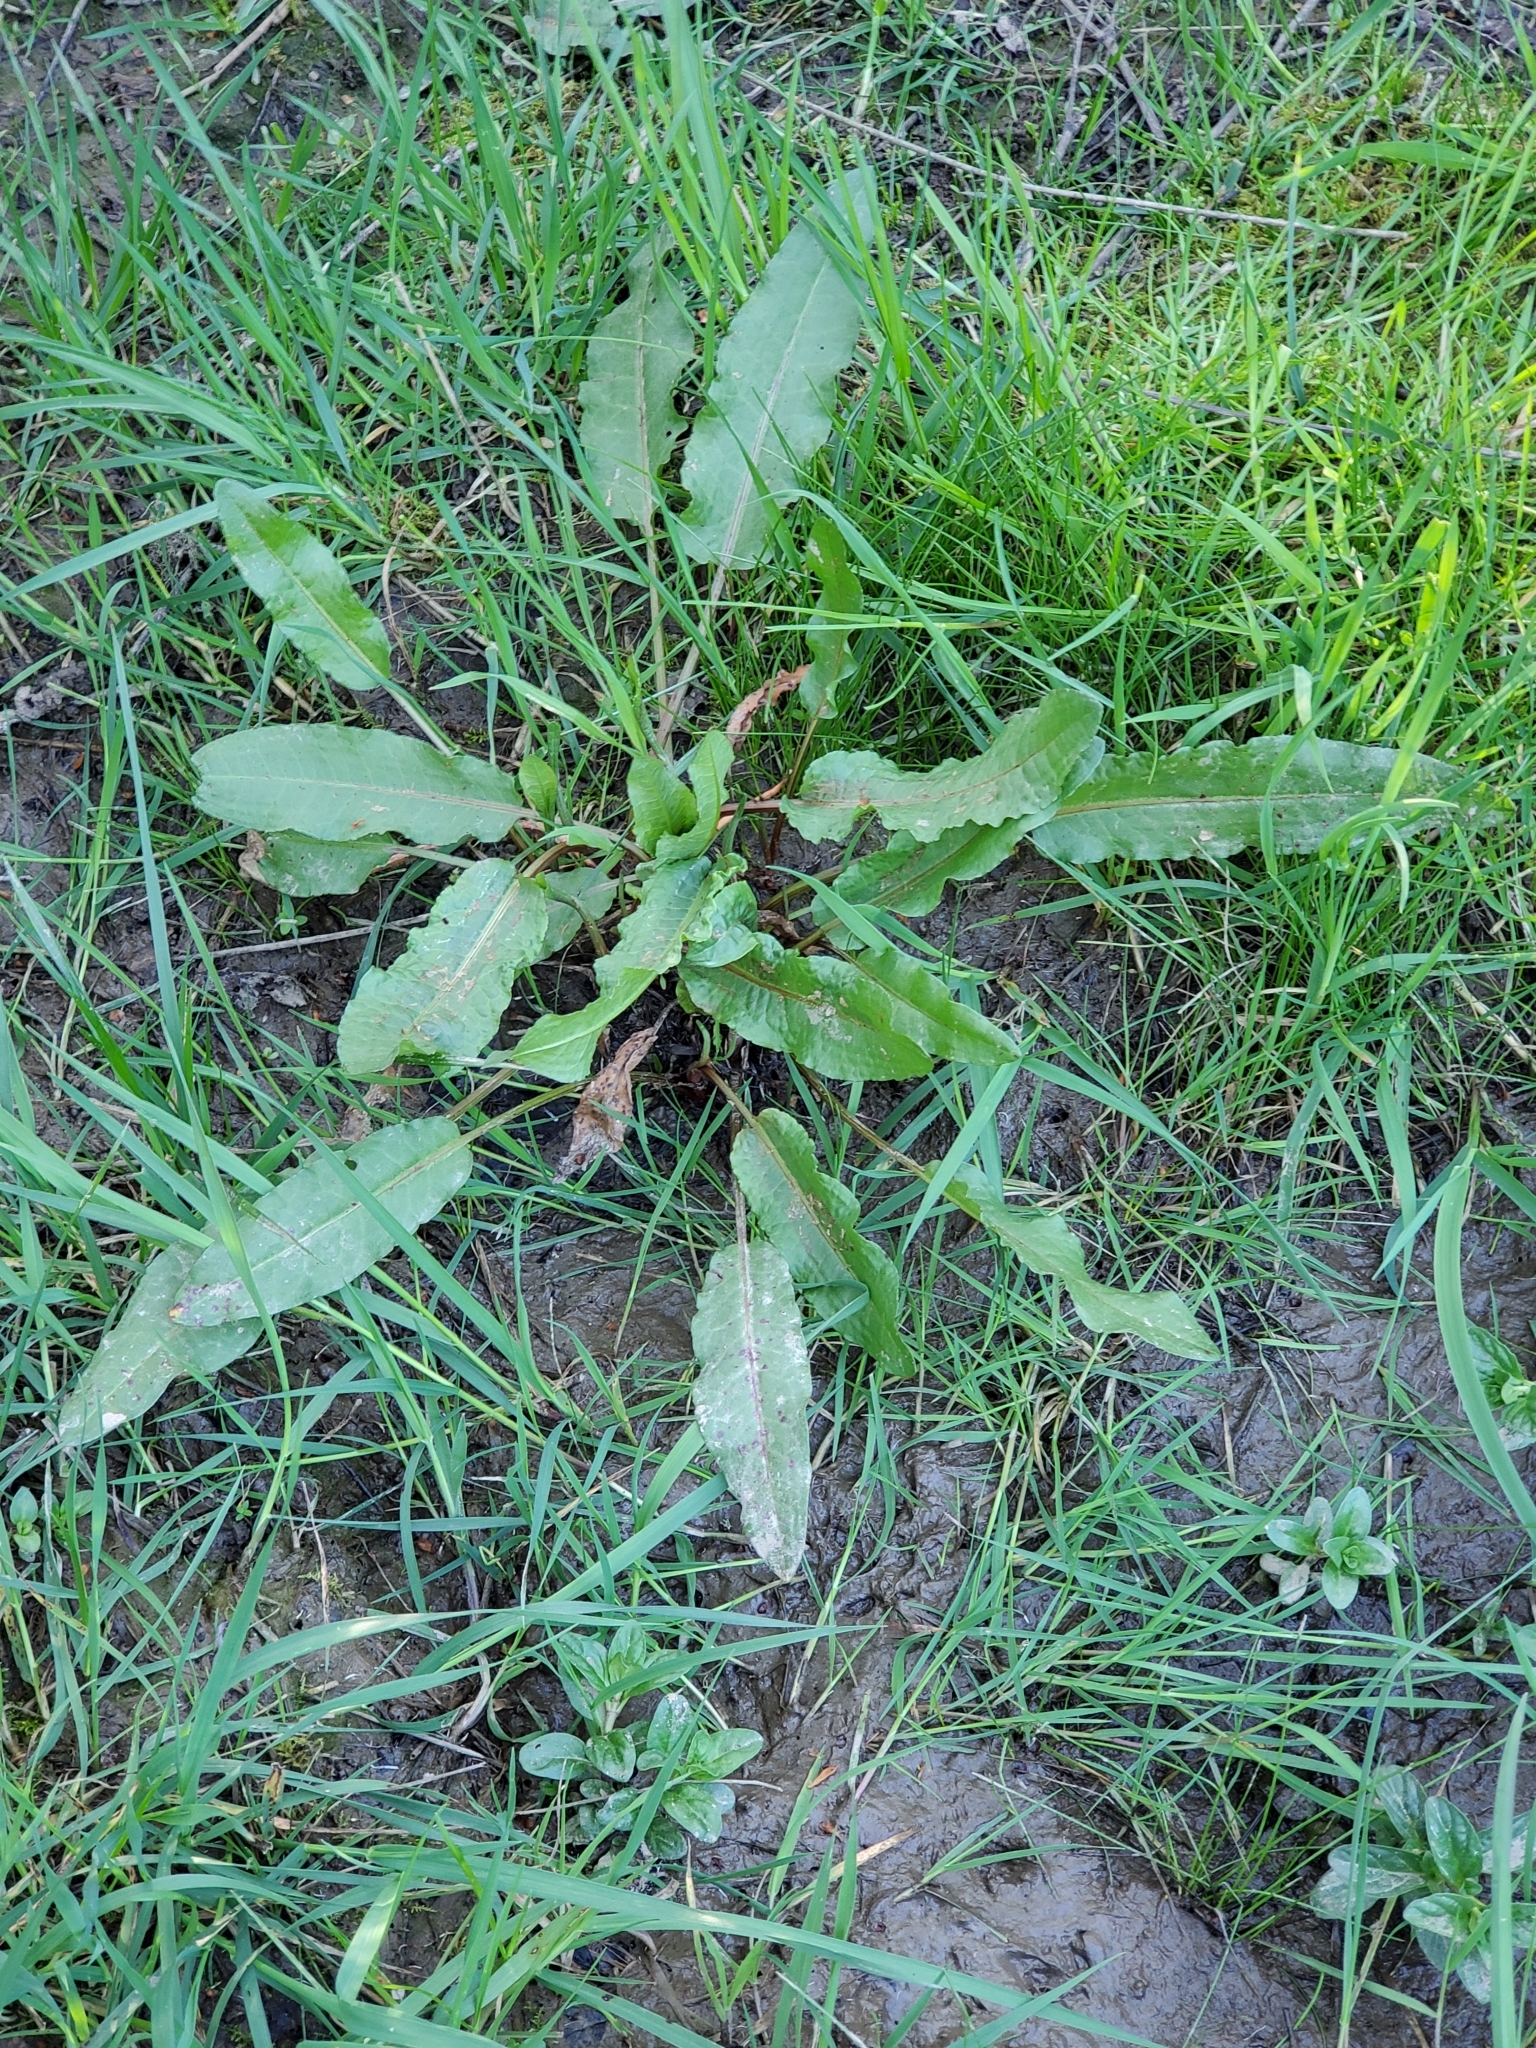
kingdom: Plantae
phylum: Tracheophyta
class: Magnoliopsida
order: Caryophyllales
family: Polygonaceae
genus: Rumex
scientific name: Rumex crispus
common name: Curled dock
